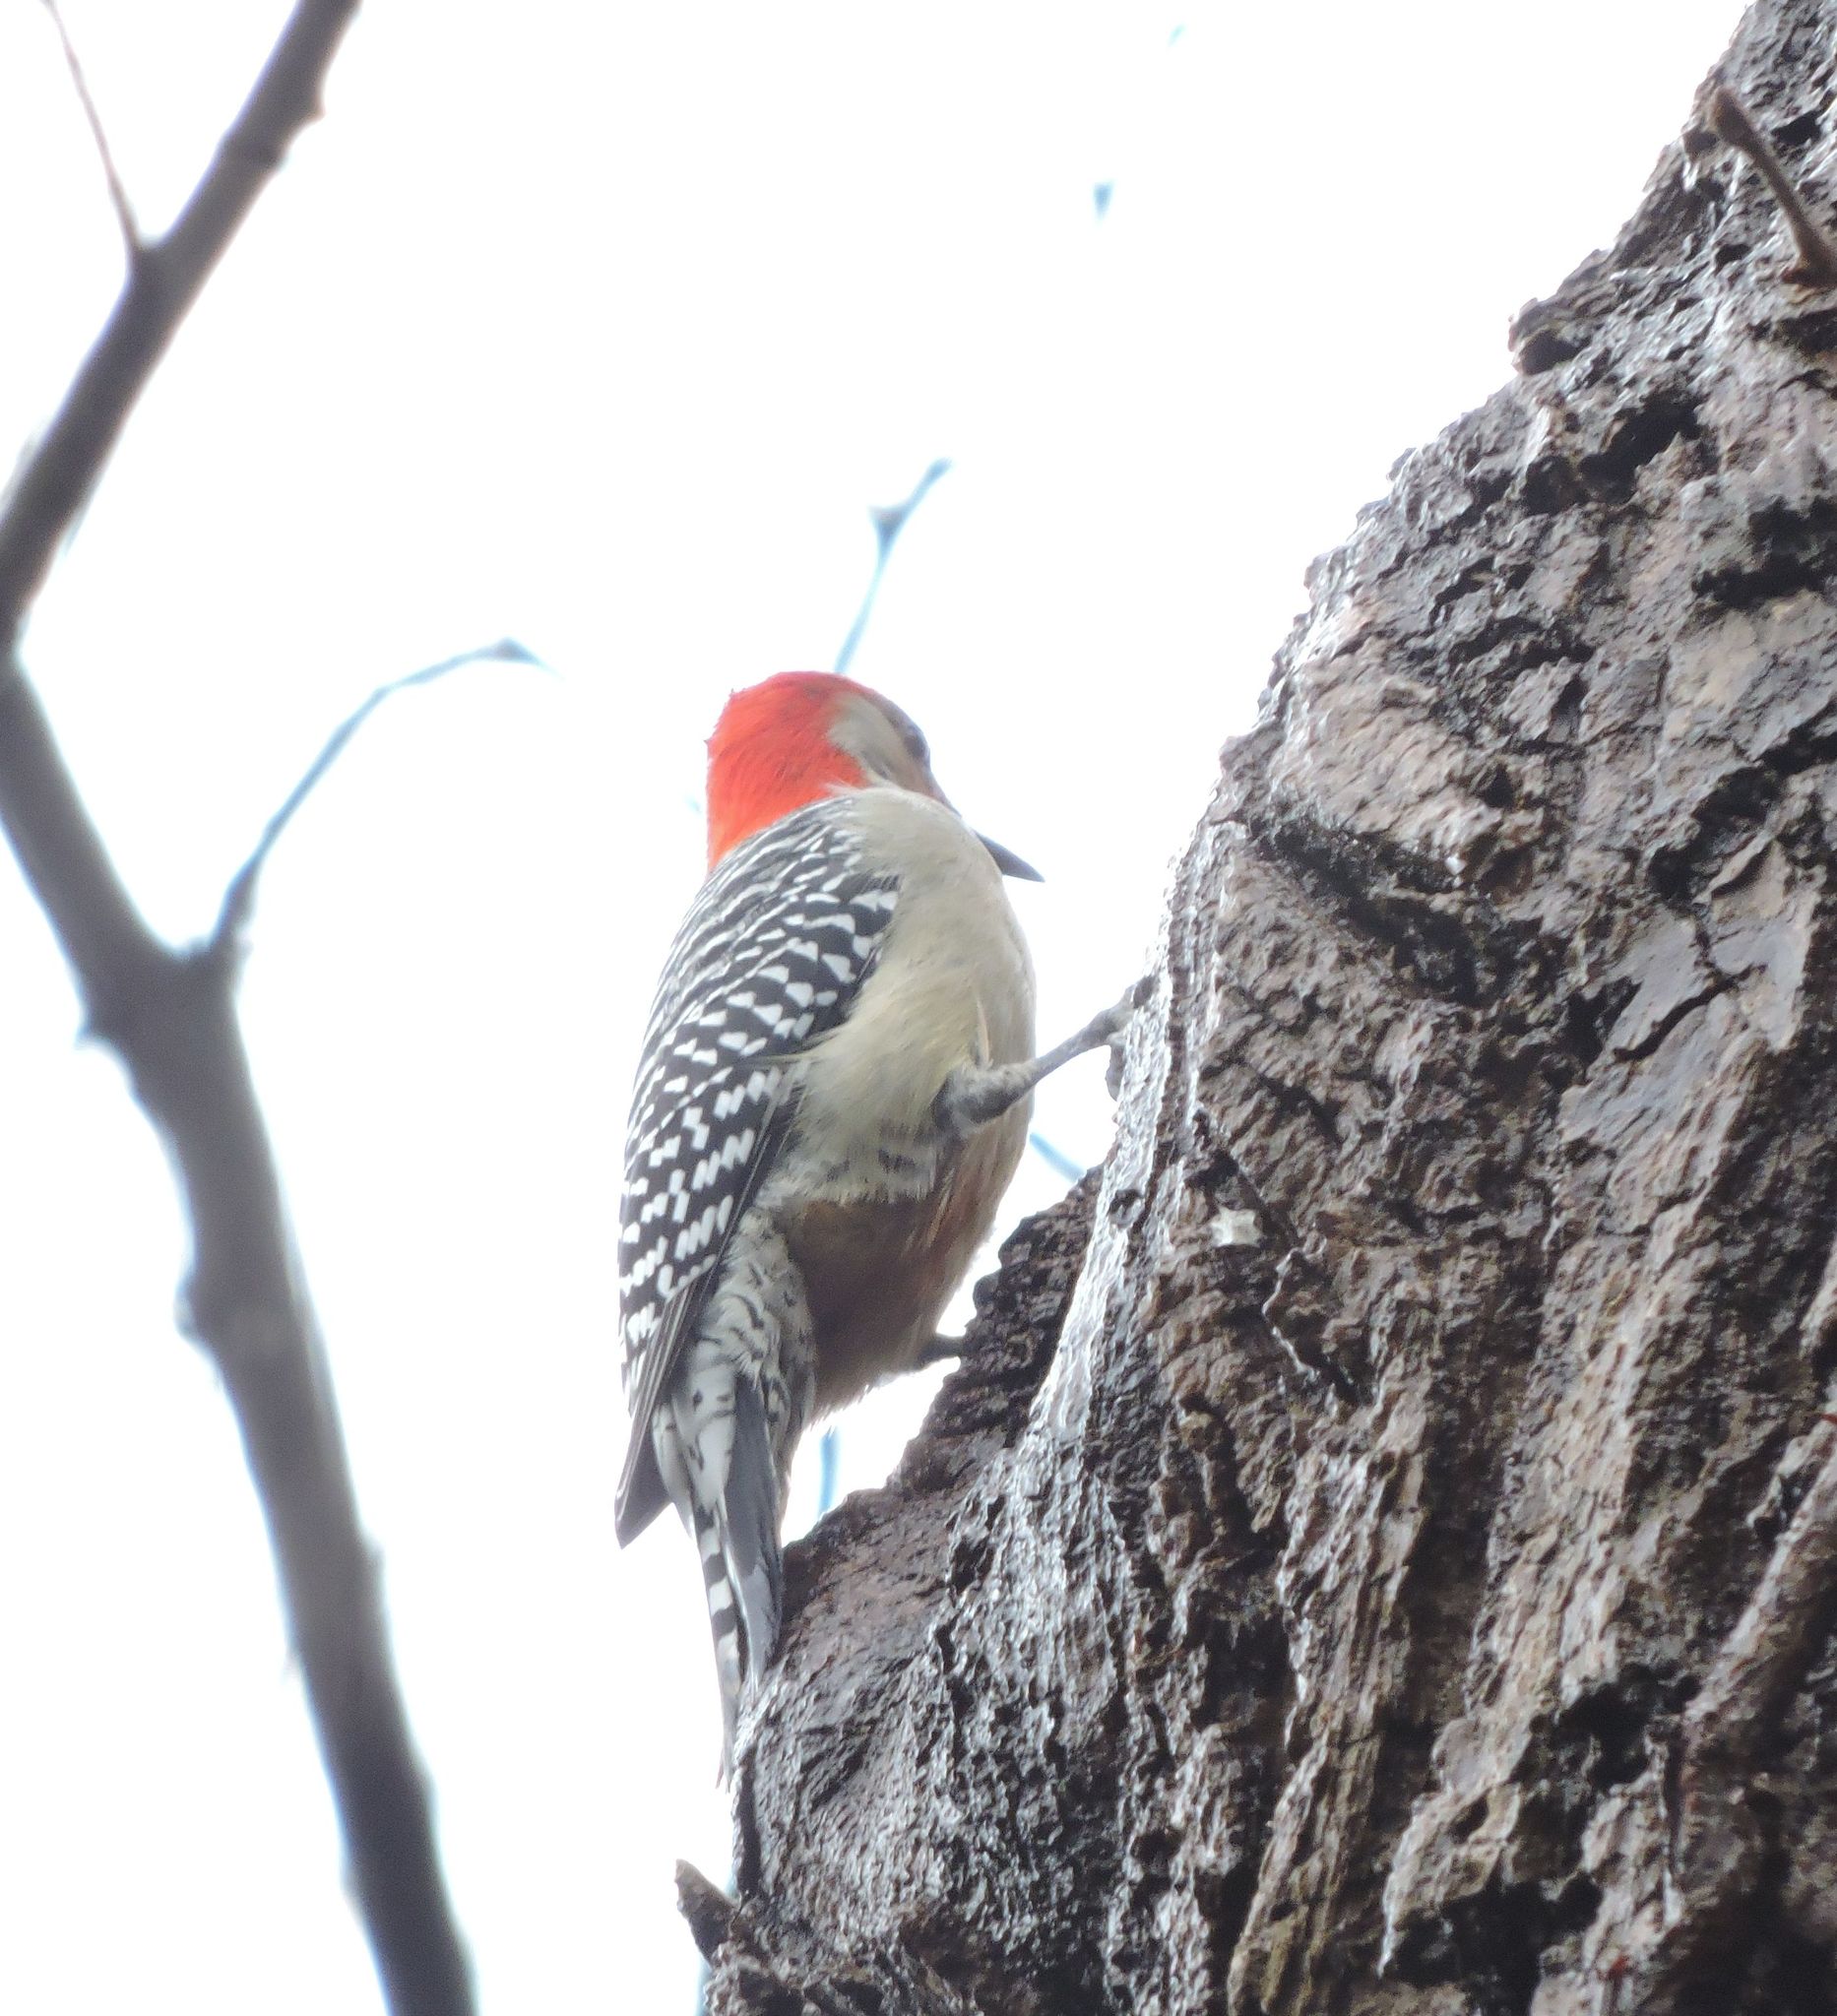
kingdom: Animalia
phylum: Chordata
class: Aves
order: Piciformes
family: Picidae
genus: Melanerpes
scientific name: Melanerpes carolinus
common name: Red-bellied woodpecker
